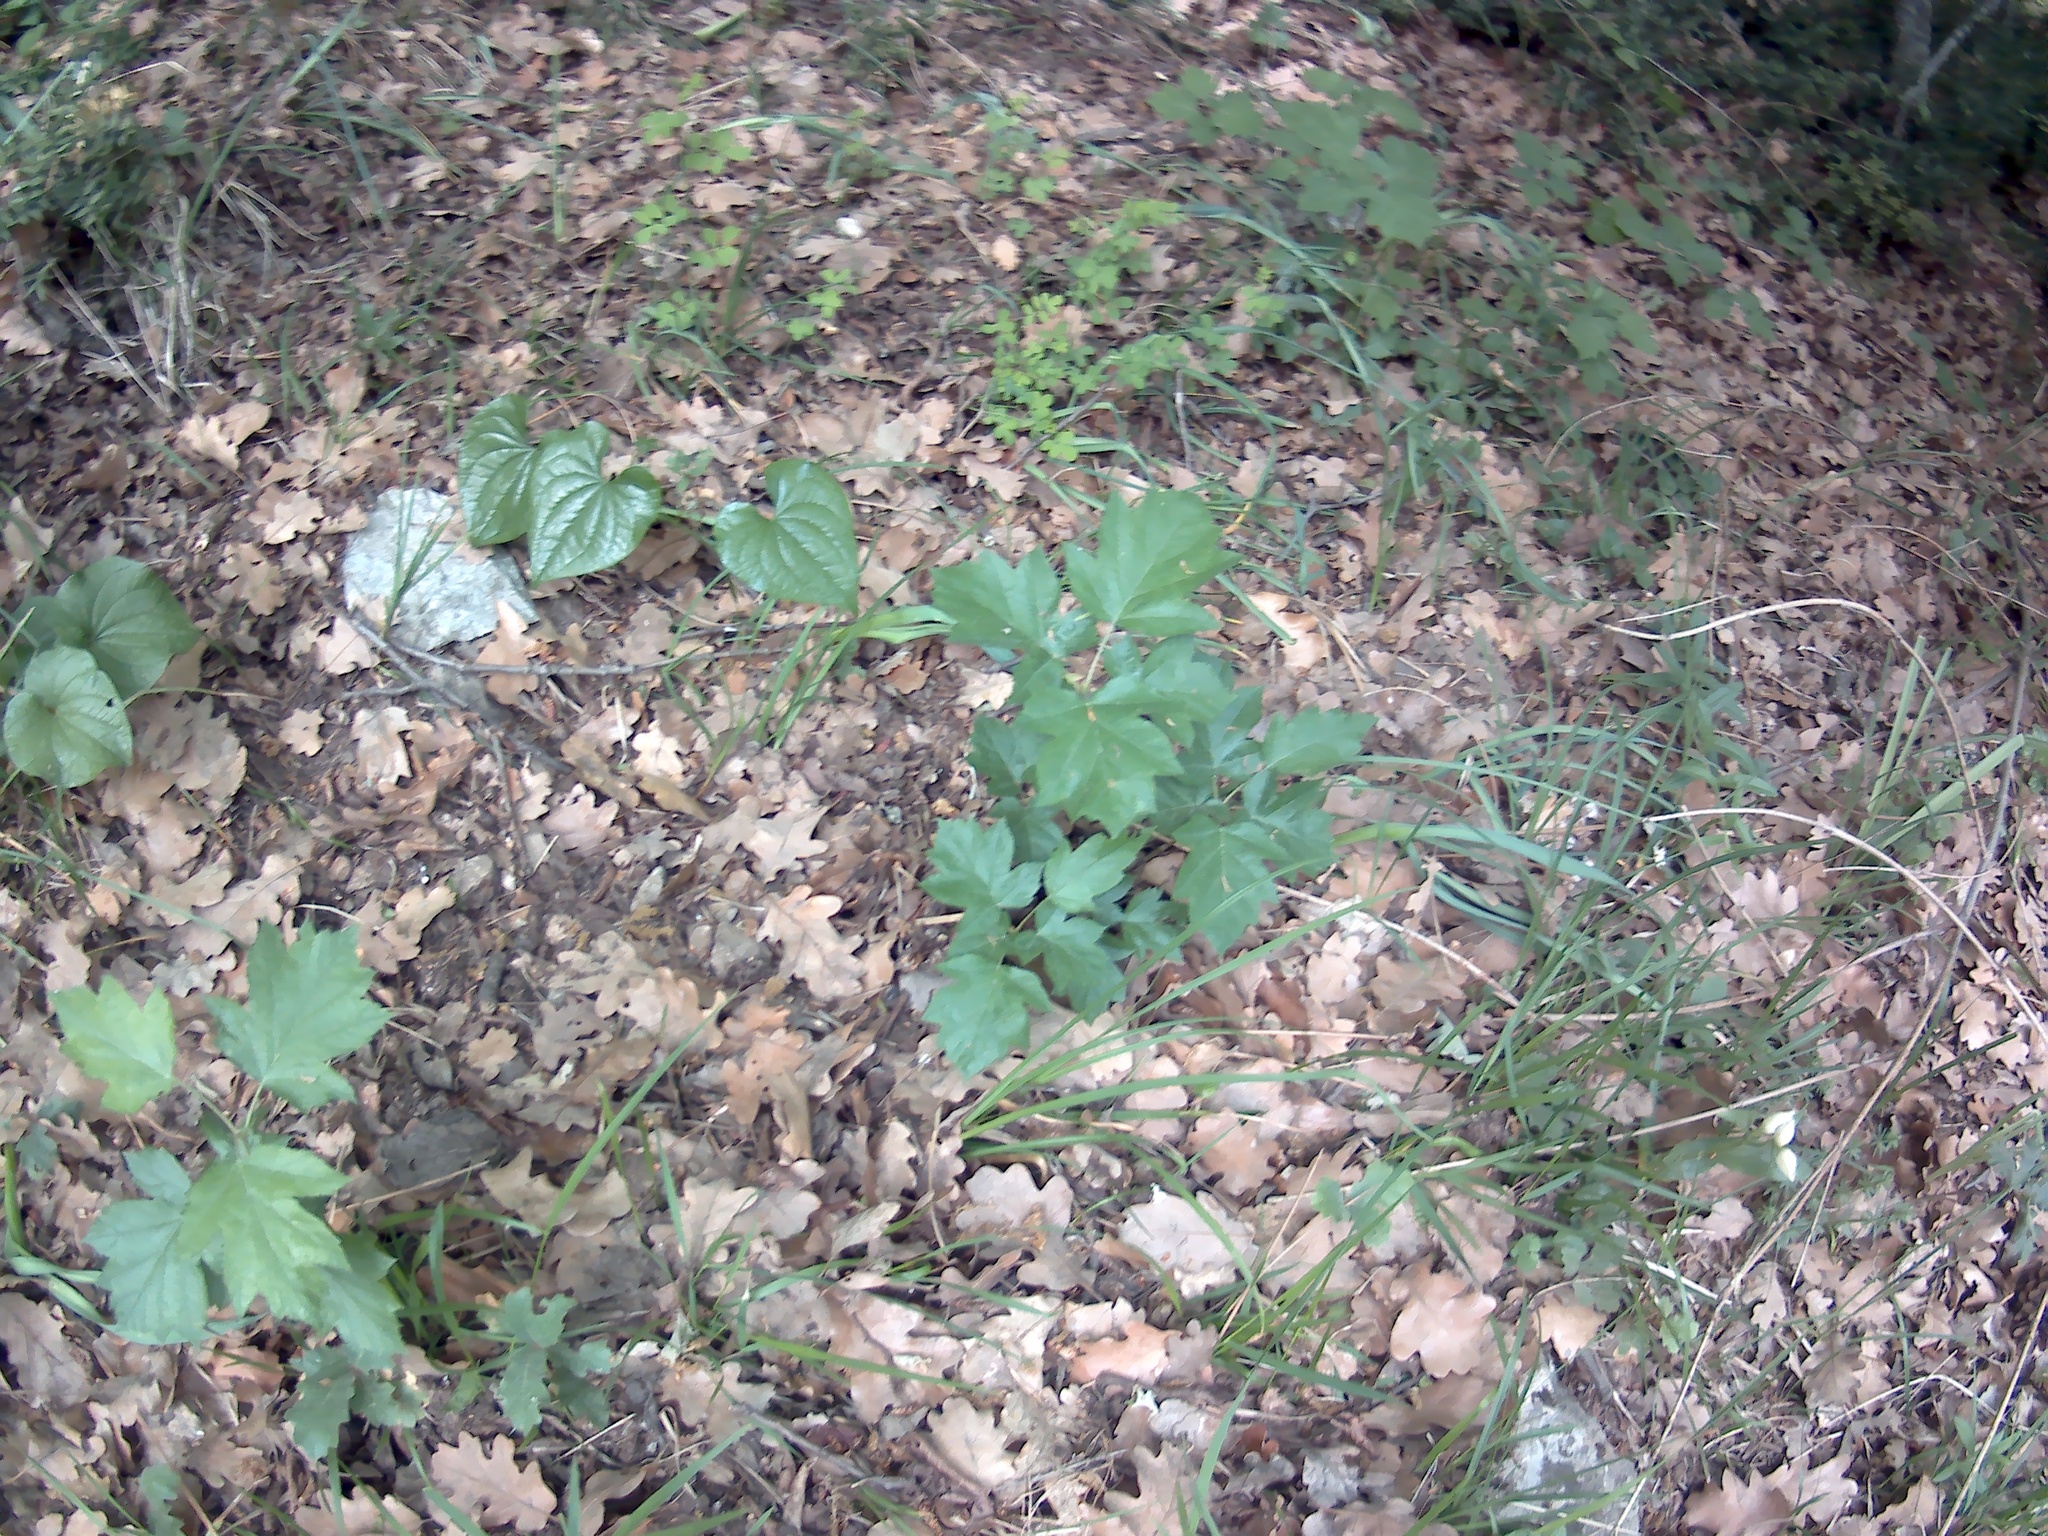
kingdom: Plantae
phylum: Tracheophyta
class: Magnoliopsida
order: Rosales
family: Rosaceae
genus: Torminalis
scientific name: Torminalis glaberrima
